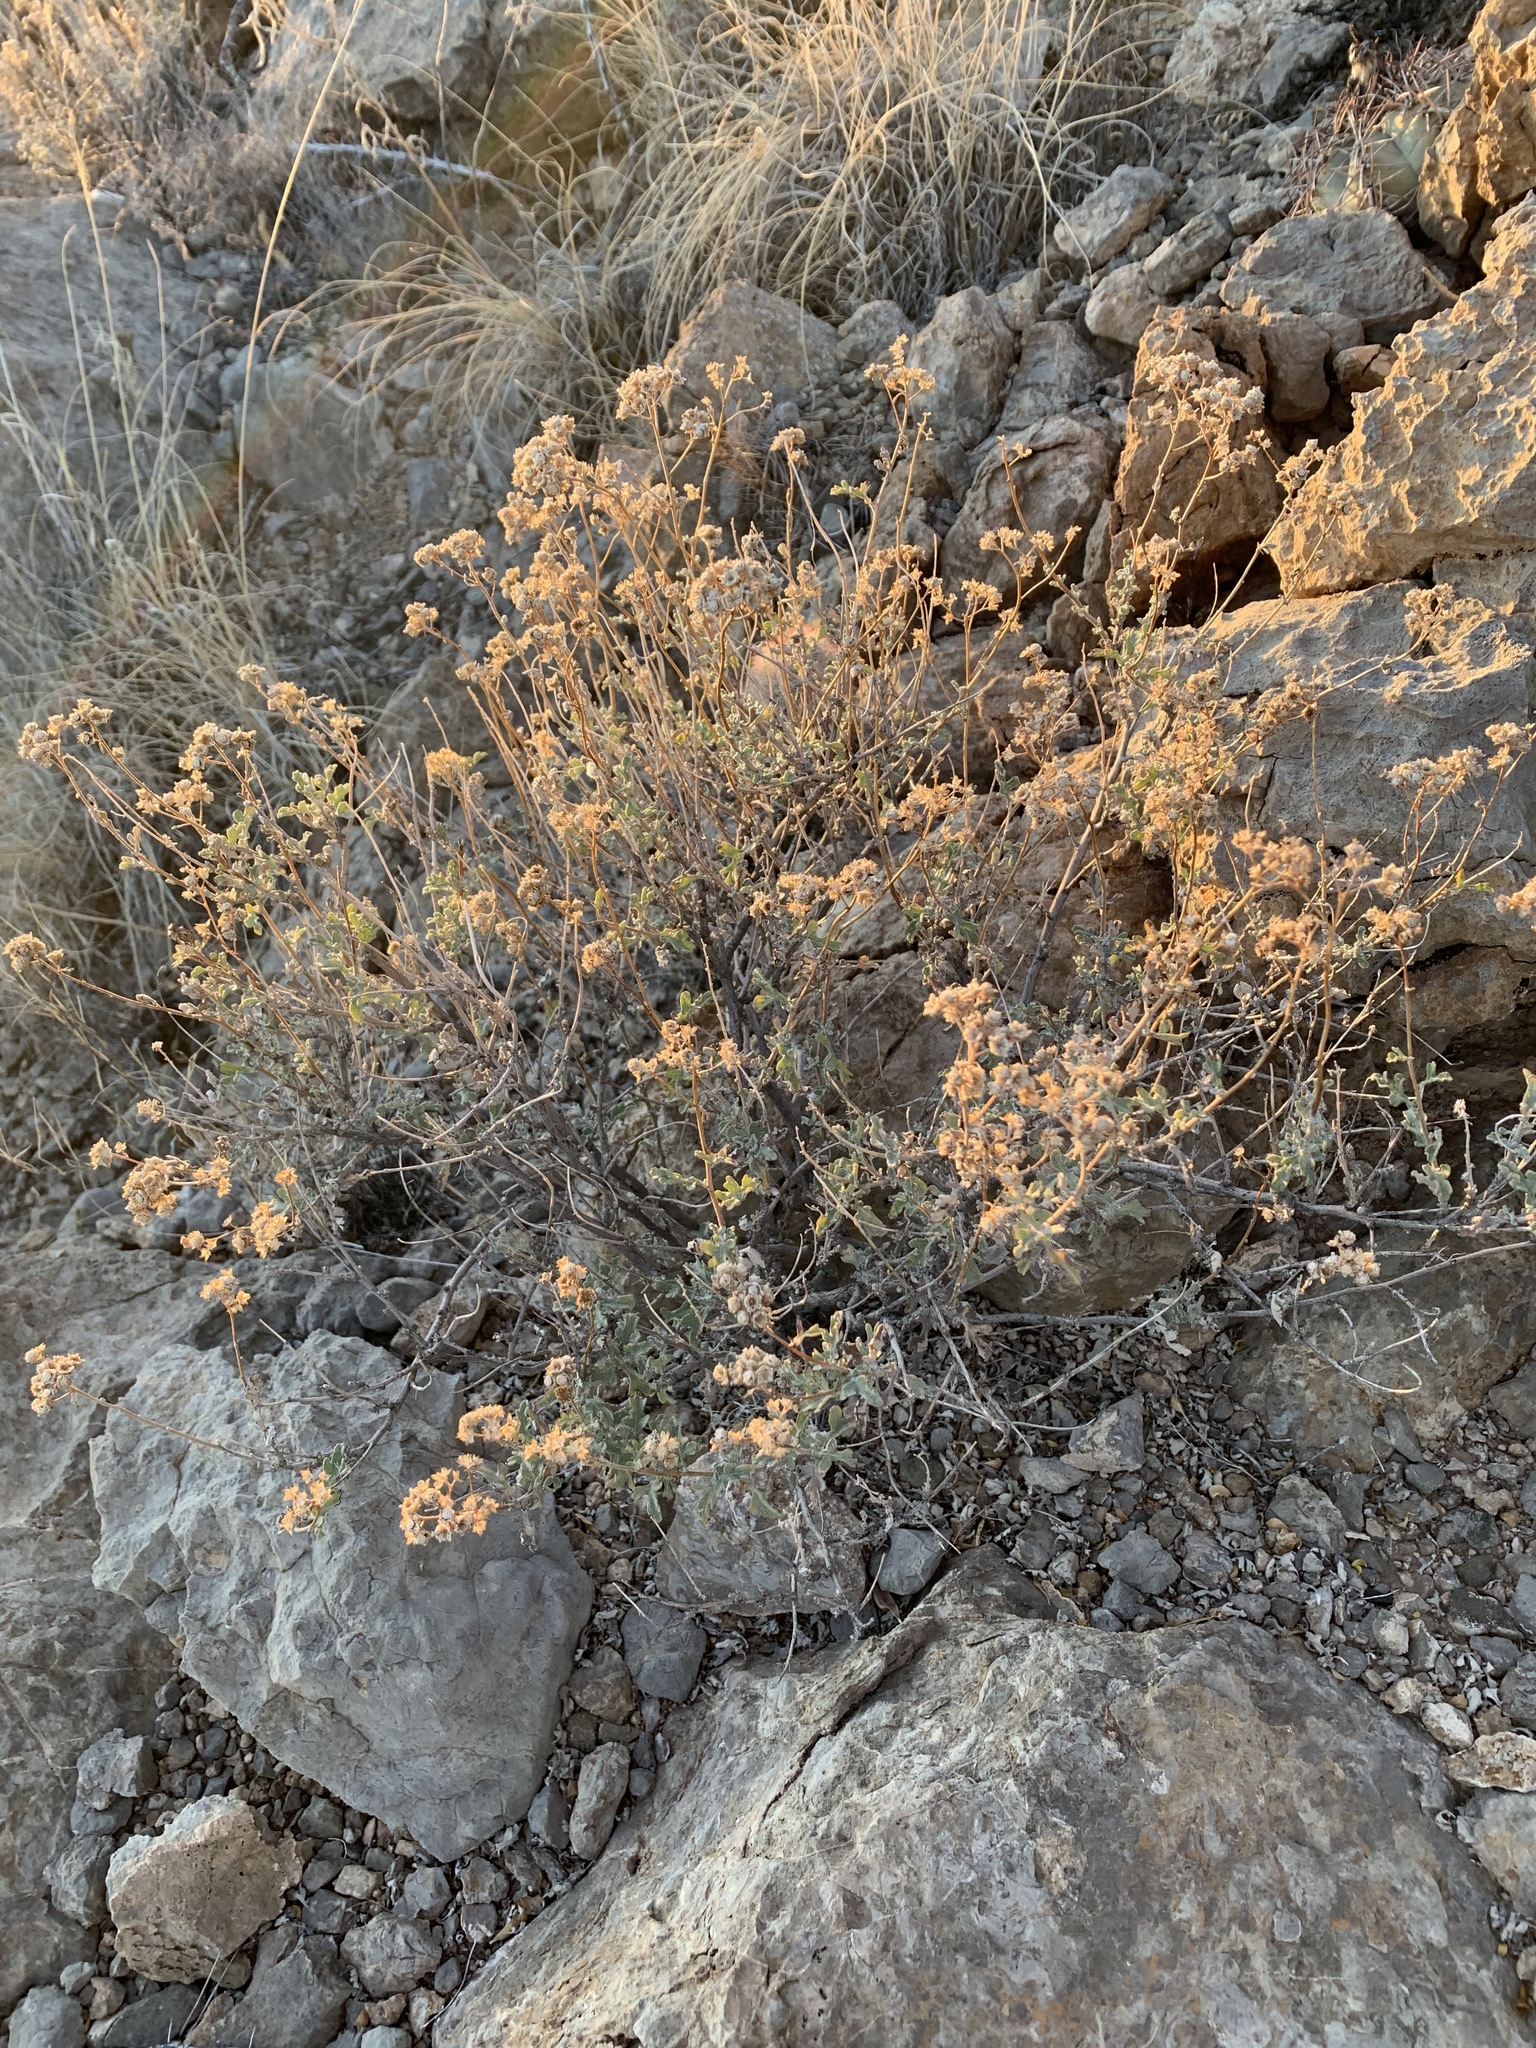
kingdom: Plantae
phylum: Tracheophyta
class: Magnoliopsida
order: Asterales
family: Asteraceae
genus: Parthenium
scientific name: Parthenium incanum
